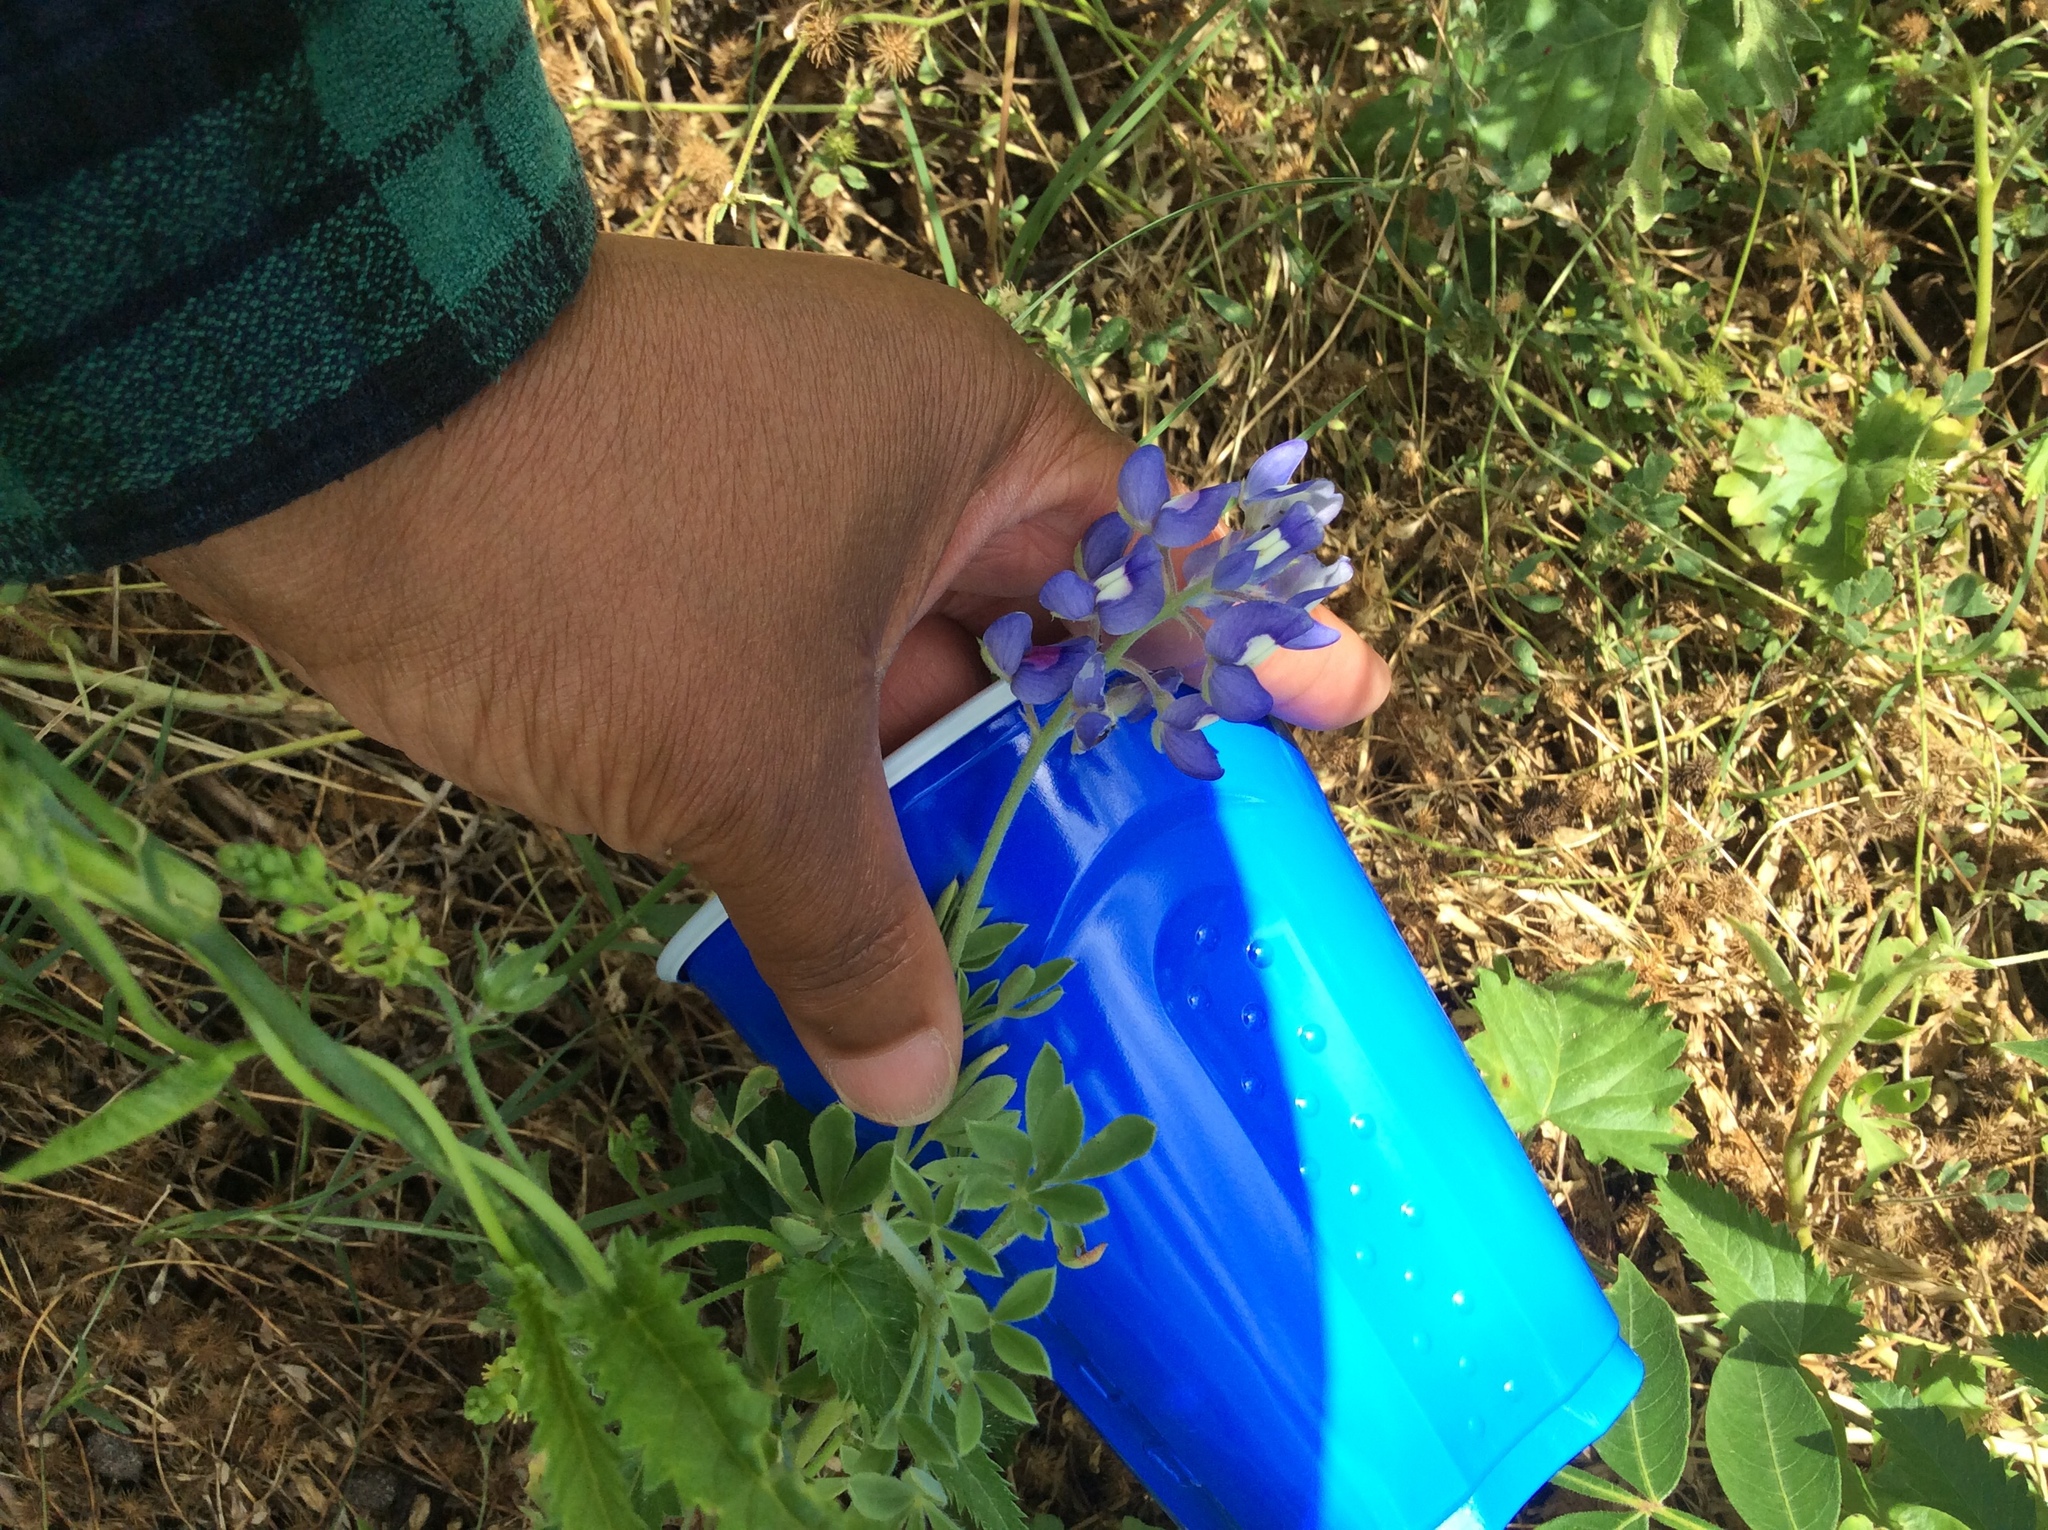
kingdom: Plantae
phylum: Tracheophyta
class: Magnoliopsida
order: Fabales
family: Fabaceae
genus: Lupinus
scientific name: Lupinus texensis
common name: Texas bluebonnet
